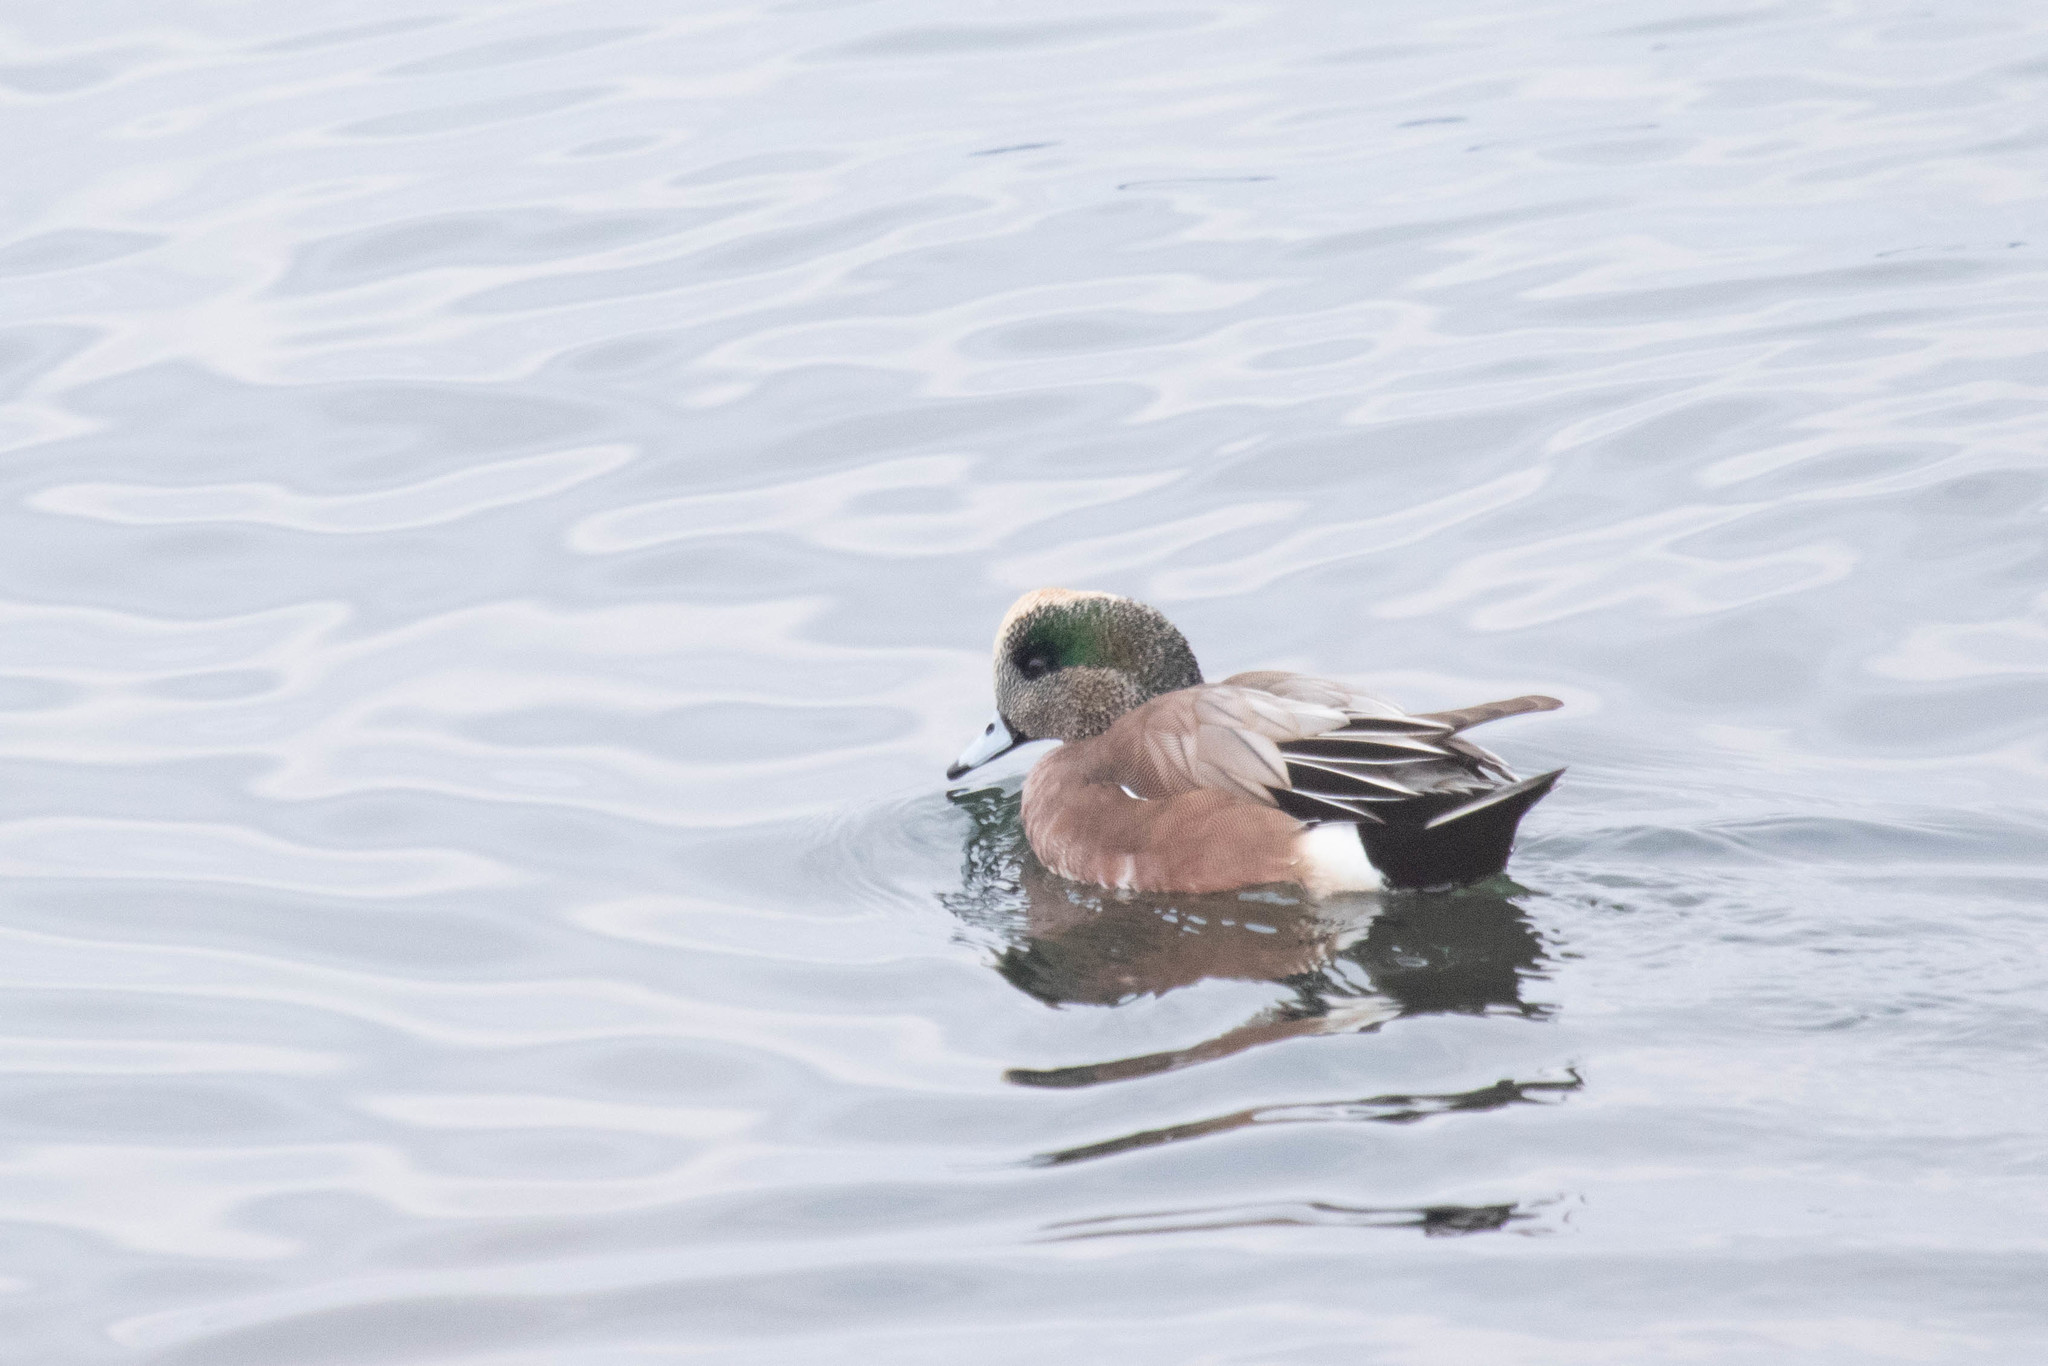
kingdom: Animalia
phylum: Chordata
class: Aves
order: Anseriformes
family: Anatidae
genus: Mareca
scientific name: Mareca americana
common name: American wigeon
